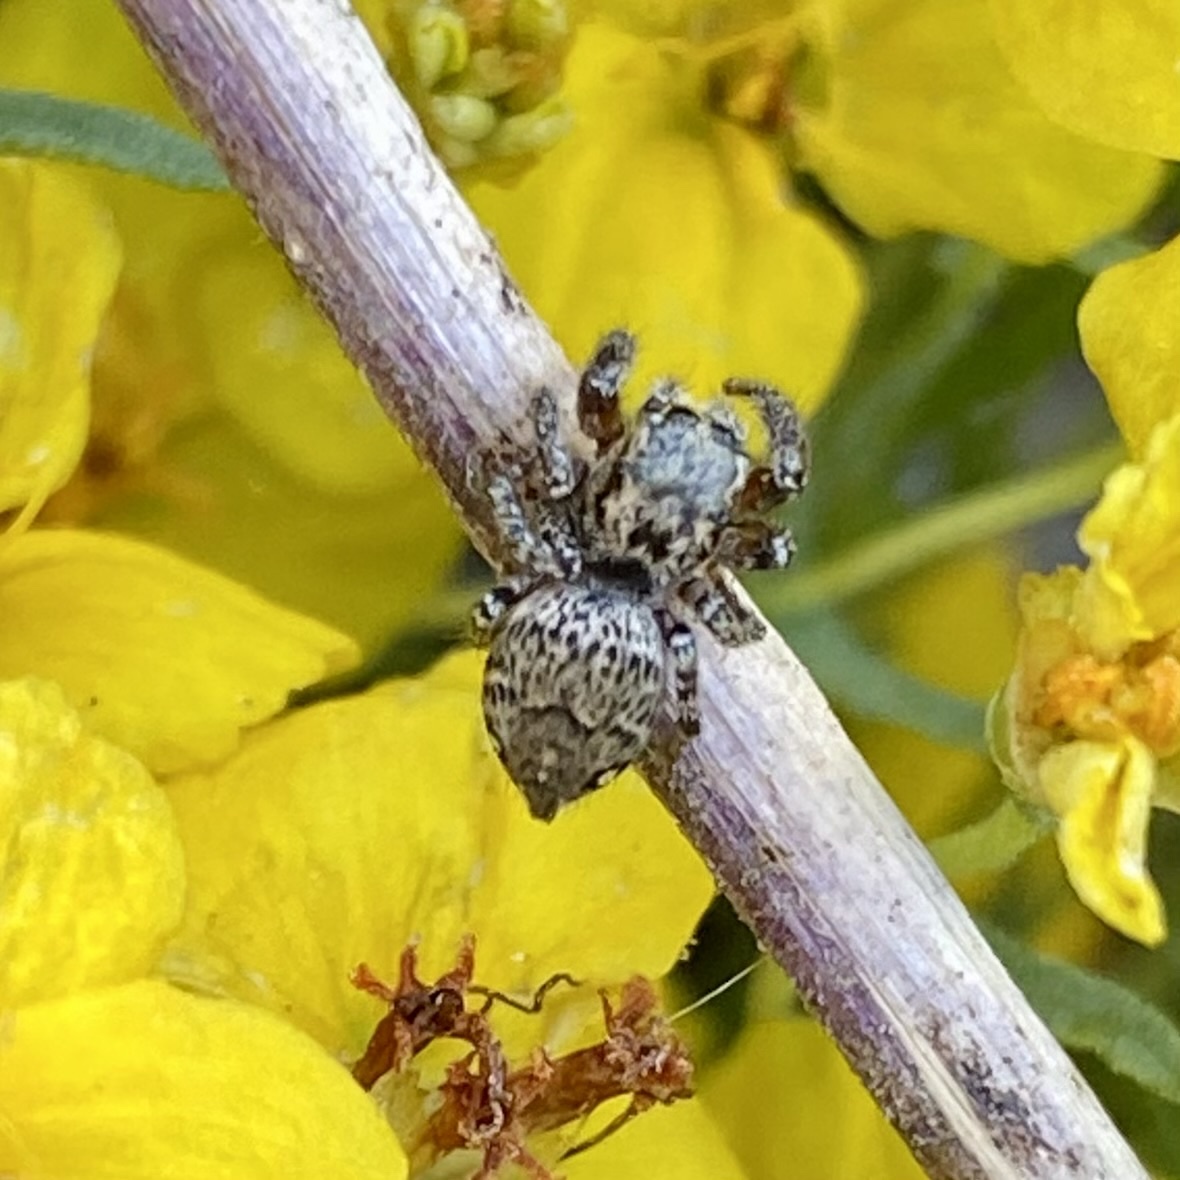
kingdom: Animalia
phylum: Arthropoda
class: Arachnida
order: Araneae
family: Salticidae
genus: Habronattus
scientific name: Habronattus geronimoi
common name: Jumping spiders
